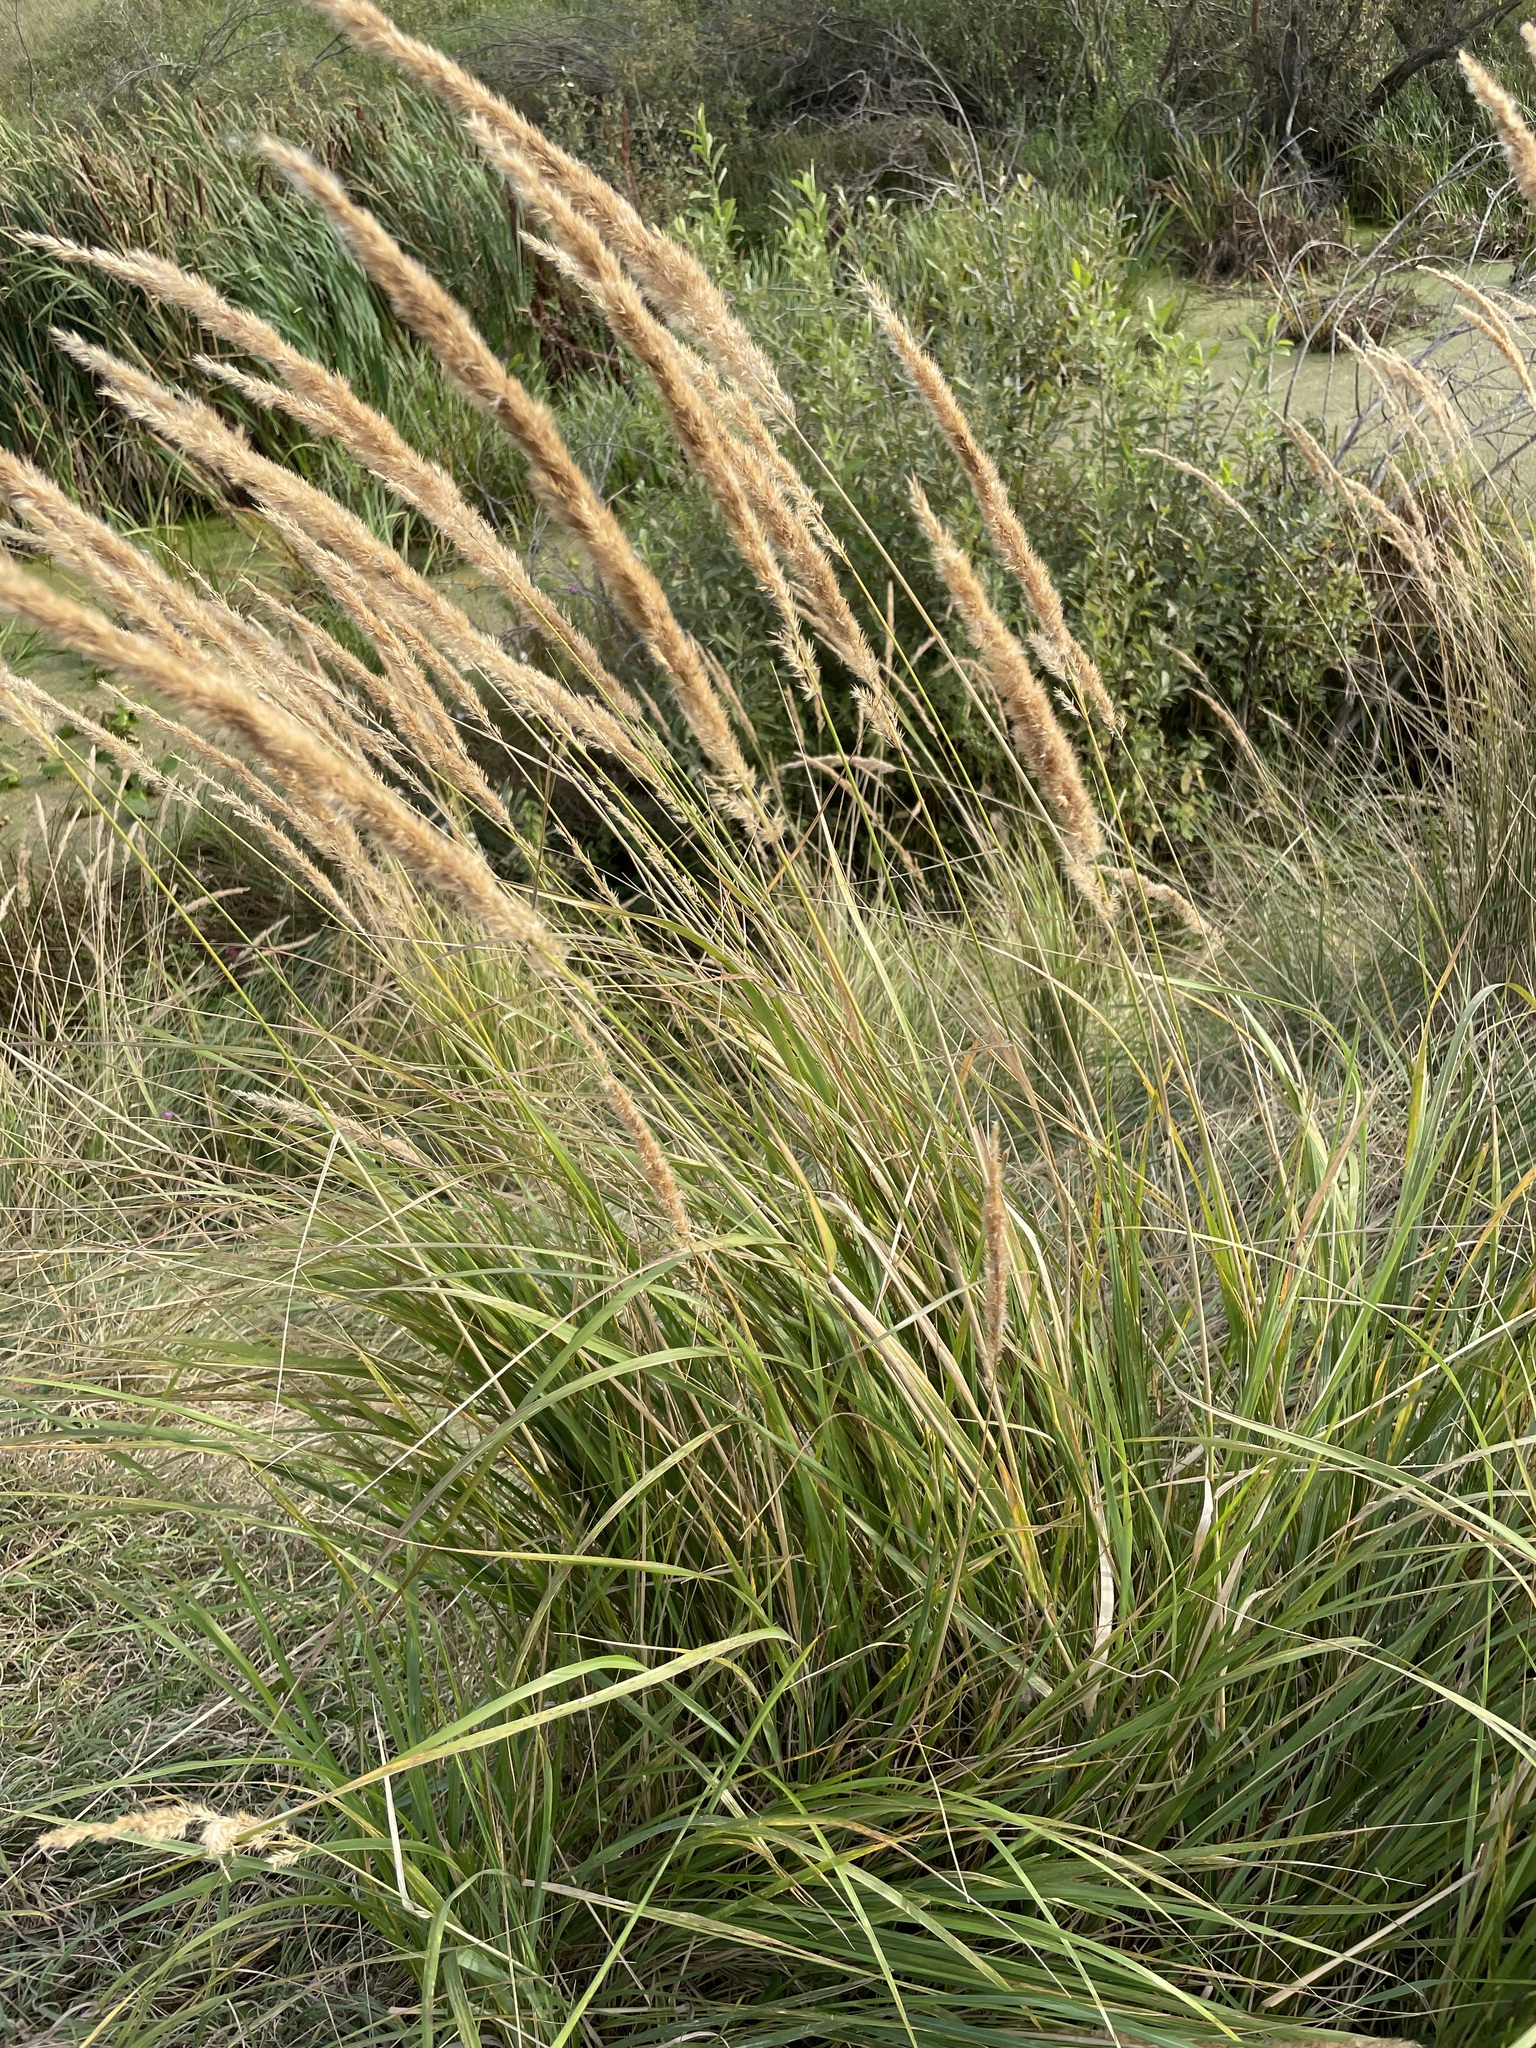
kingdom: Plantae
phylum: Tracheophyta
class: Liliopsida
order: Poales
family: Poaceae
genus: Calamagrostis
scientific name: Calamagrostis epigejos
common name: Wood small-reed
